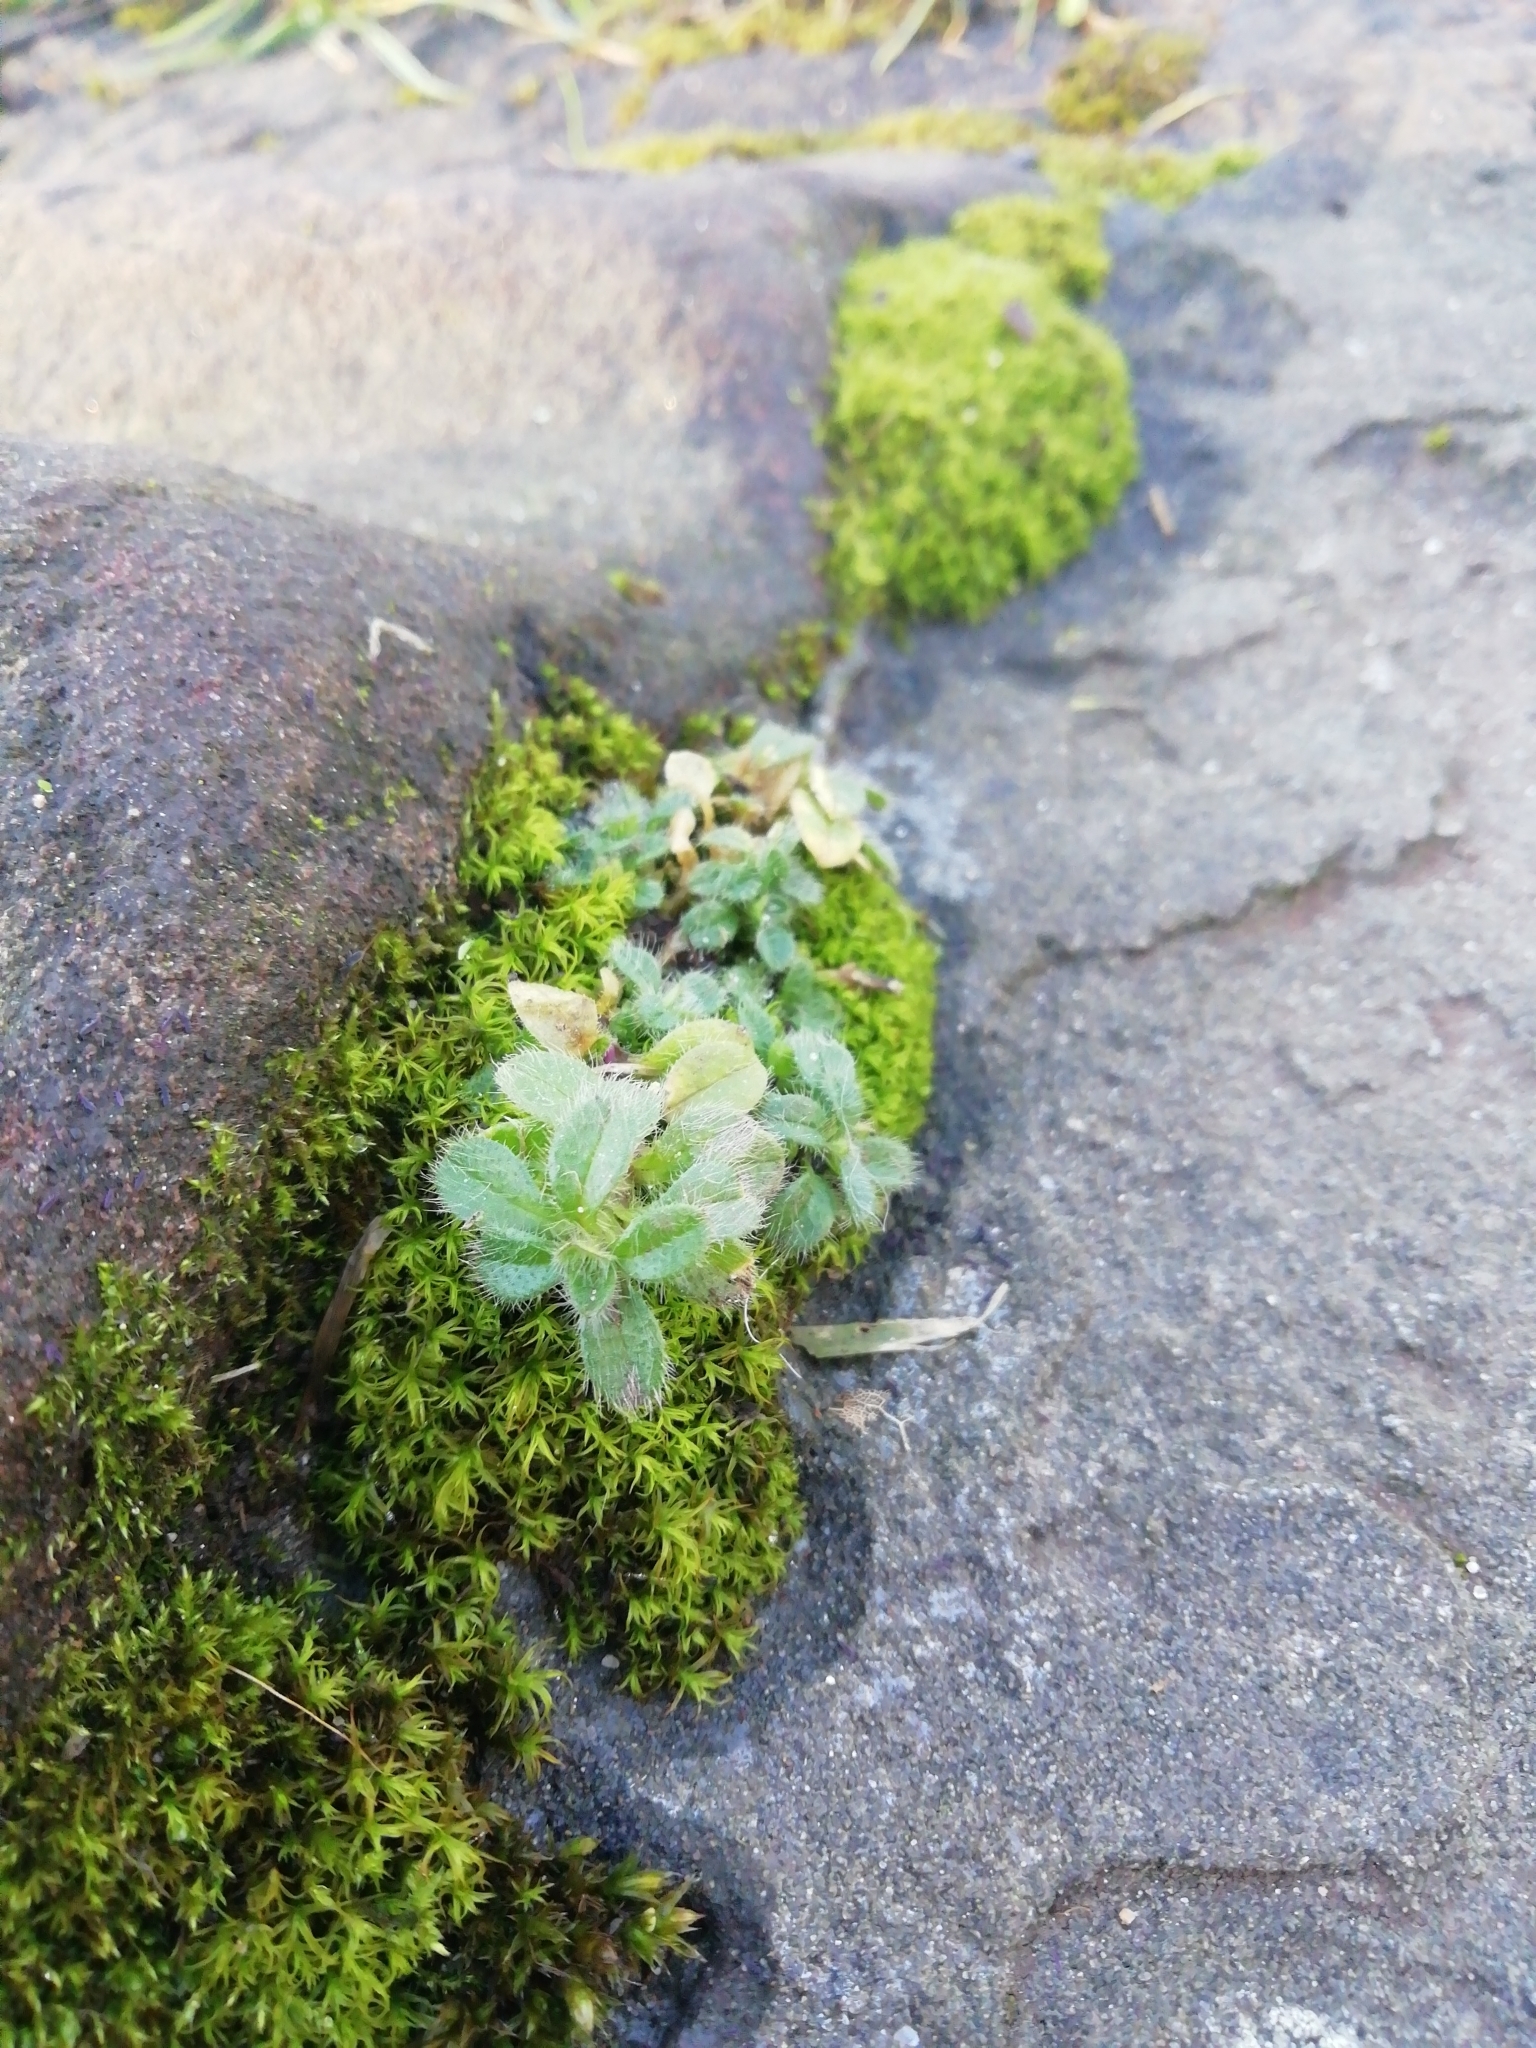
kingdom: Plantae
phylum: Tracheophyta
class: Magnoliopsida
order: Caryophyllales
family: Caryophyllaceae
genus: Cerastium
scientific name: Cerastium fontanum
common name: Common mouse-ear
